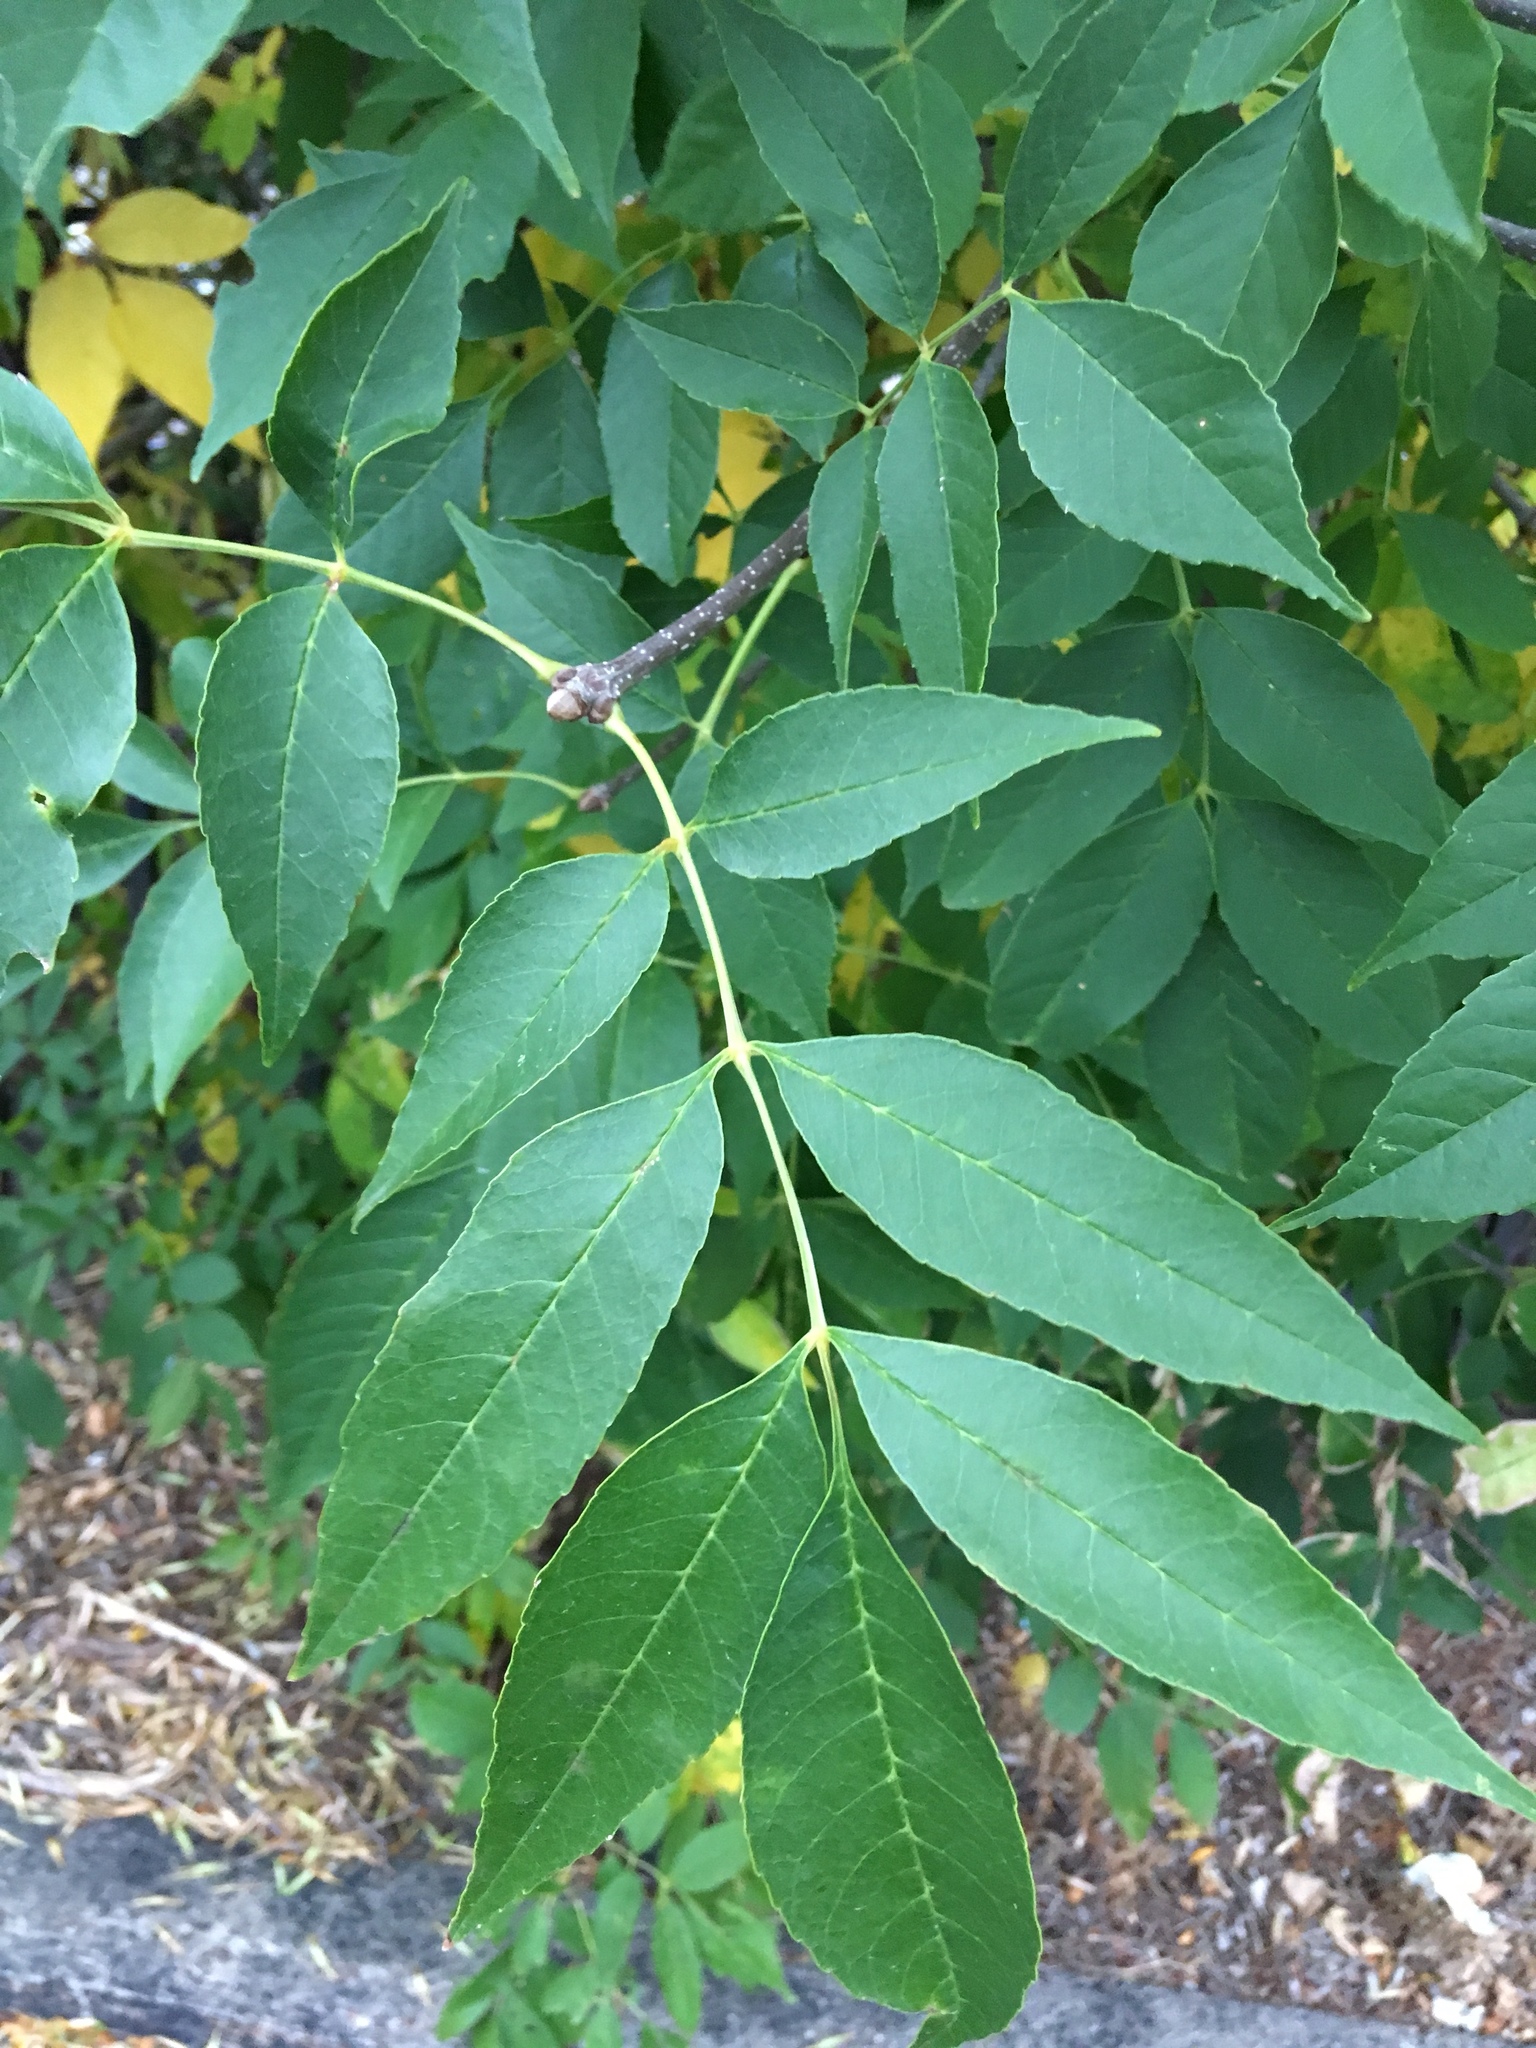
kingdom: Plantae
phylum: Tracheophyta
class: Magnoliopsida
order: Lamiales
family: Oleaceae
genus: Fraxinus
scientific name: Fraxinus pennsylvanica
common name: Green ash
